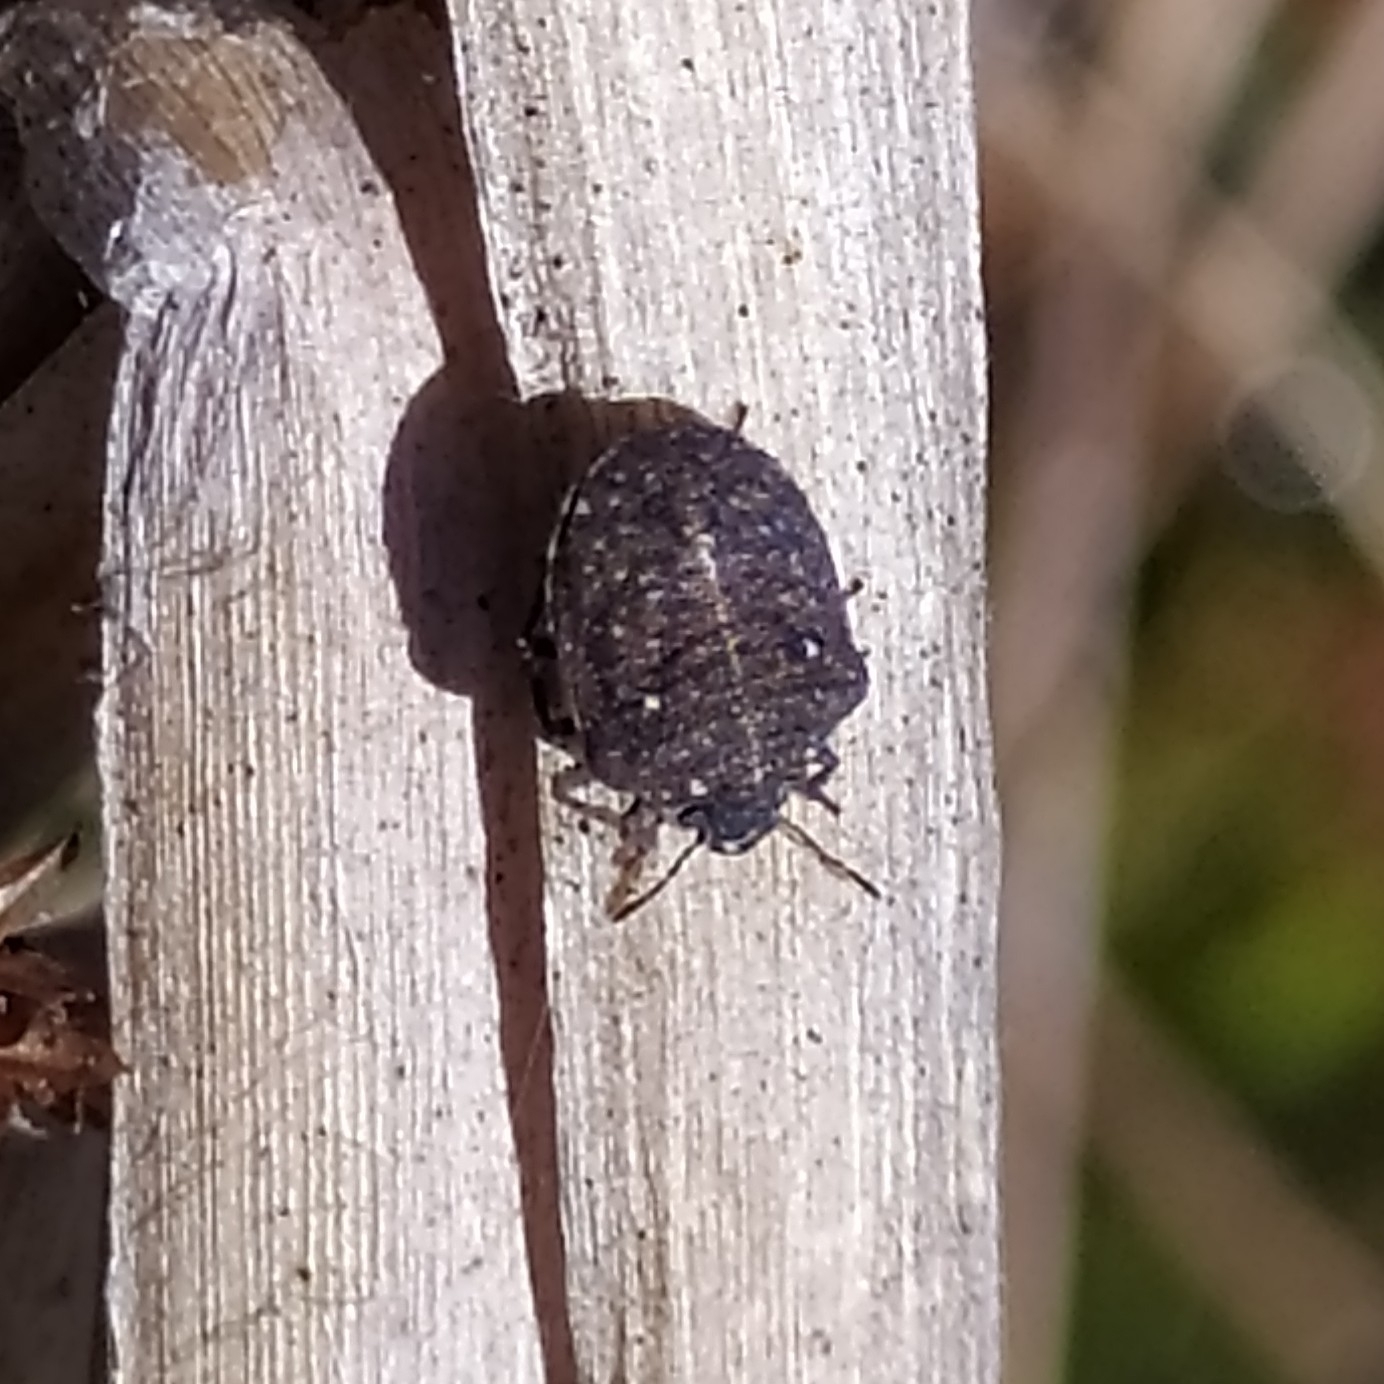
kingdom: Animalia
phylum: Arthropoda
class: Insecta
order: Hemiptera
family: Pentatomidae
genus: Dybowskyia
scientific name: Dybowskyia reticulata
